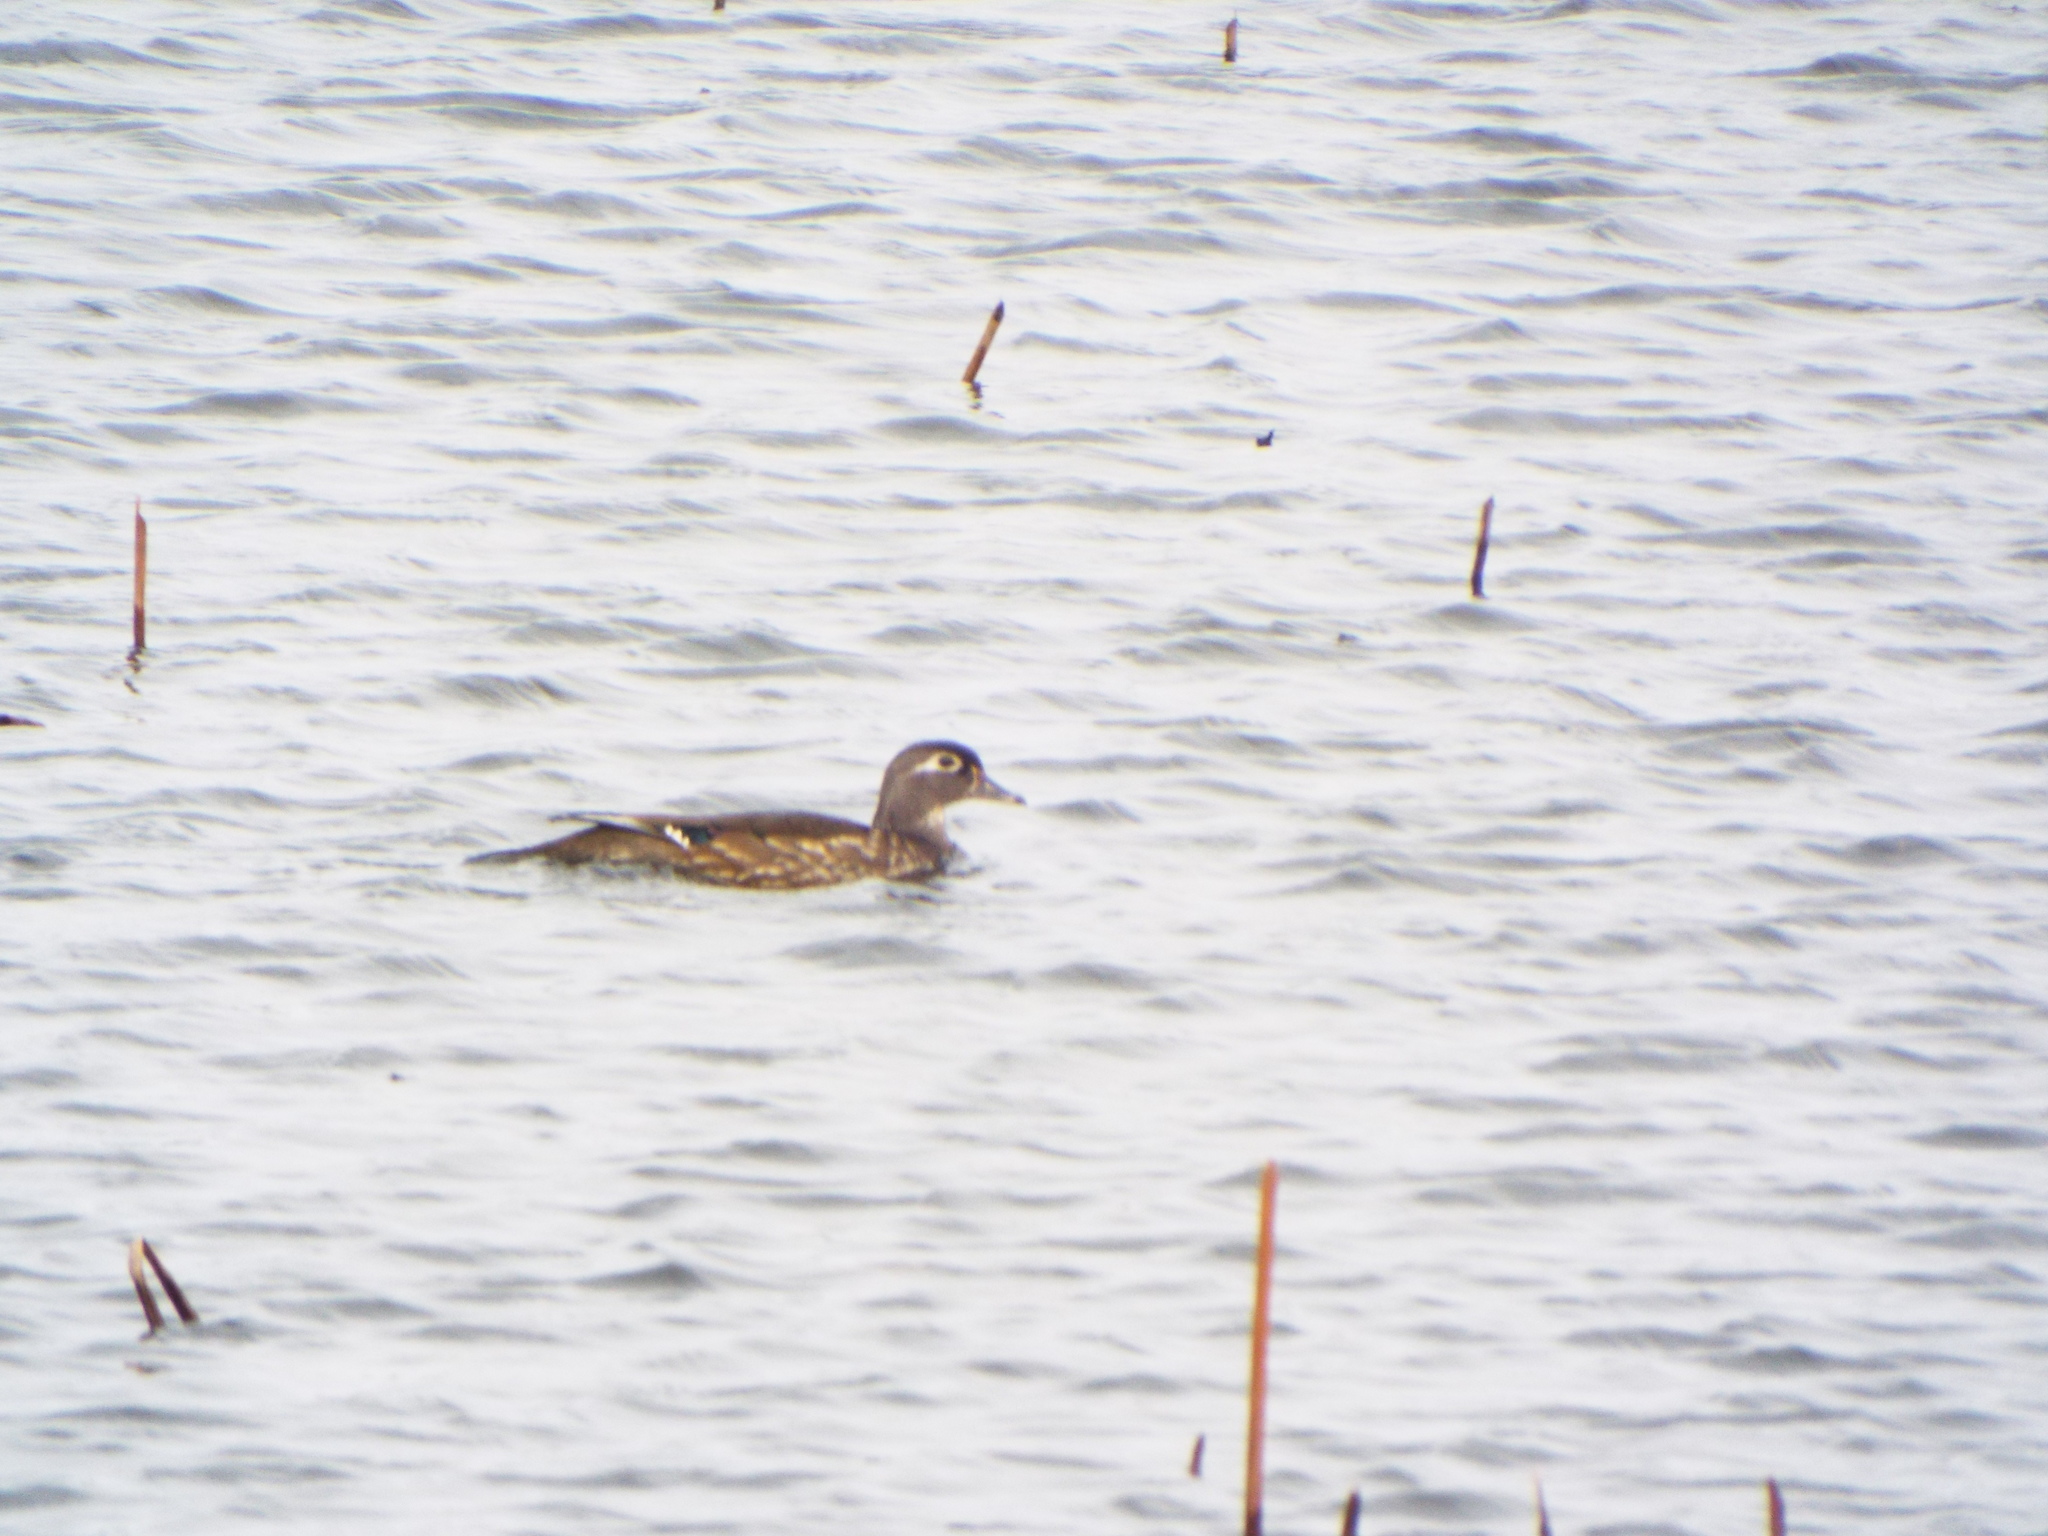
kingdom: Animalia
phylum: Chordata
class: Aves
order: Anseriformes
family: Anatidae
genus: Aix
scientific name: Aix sponsa
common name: Wood duck
